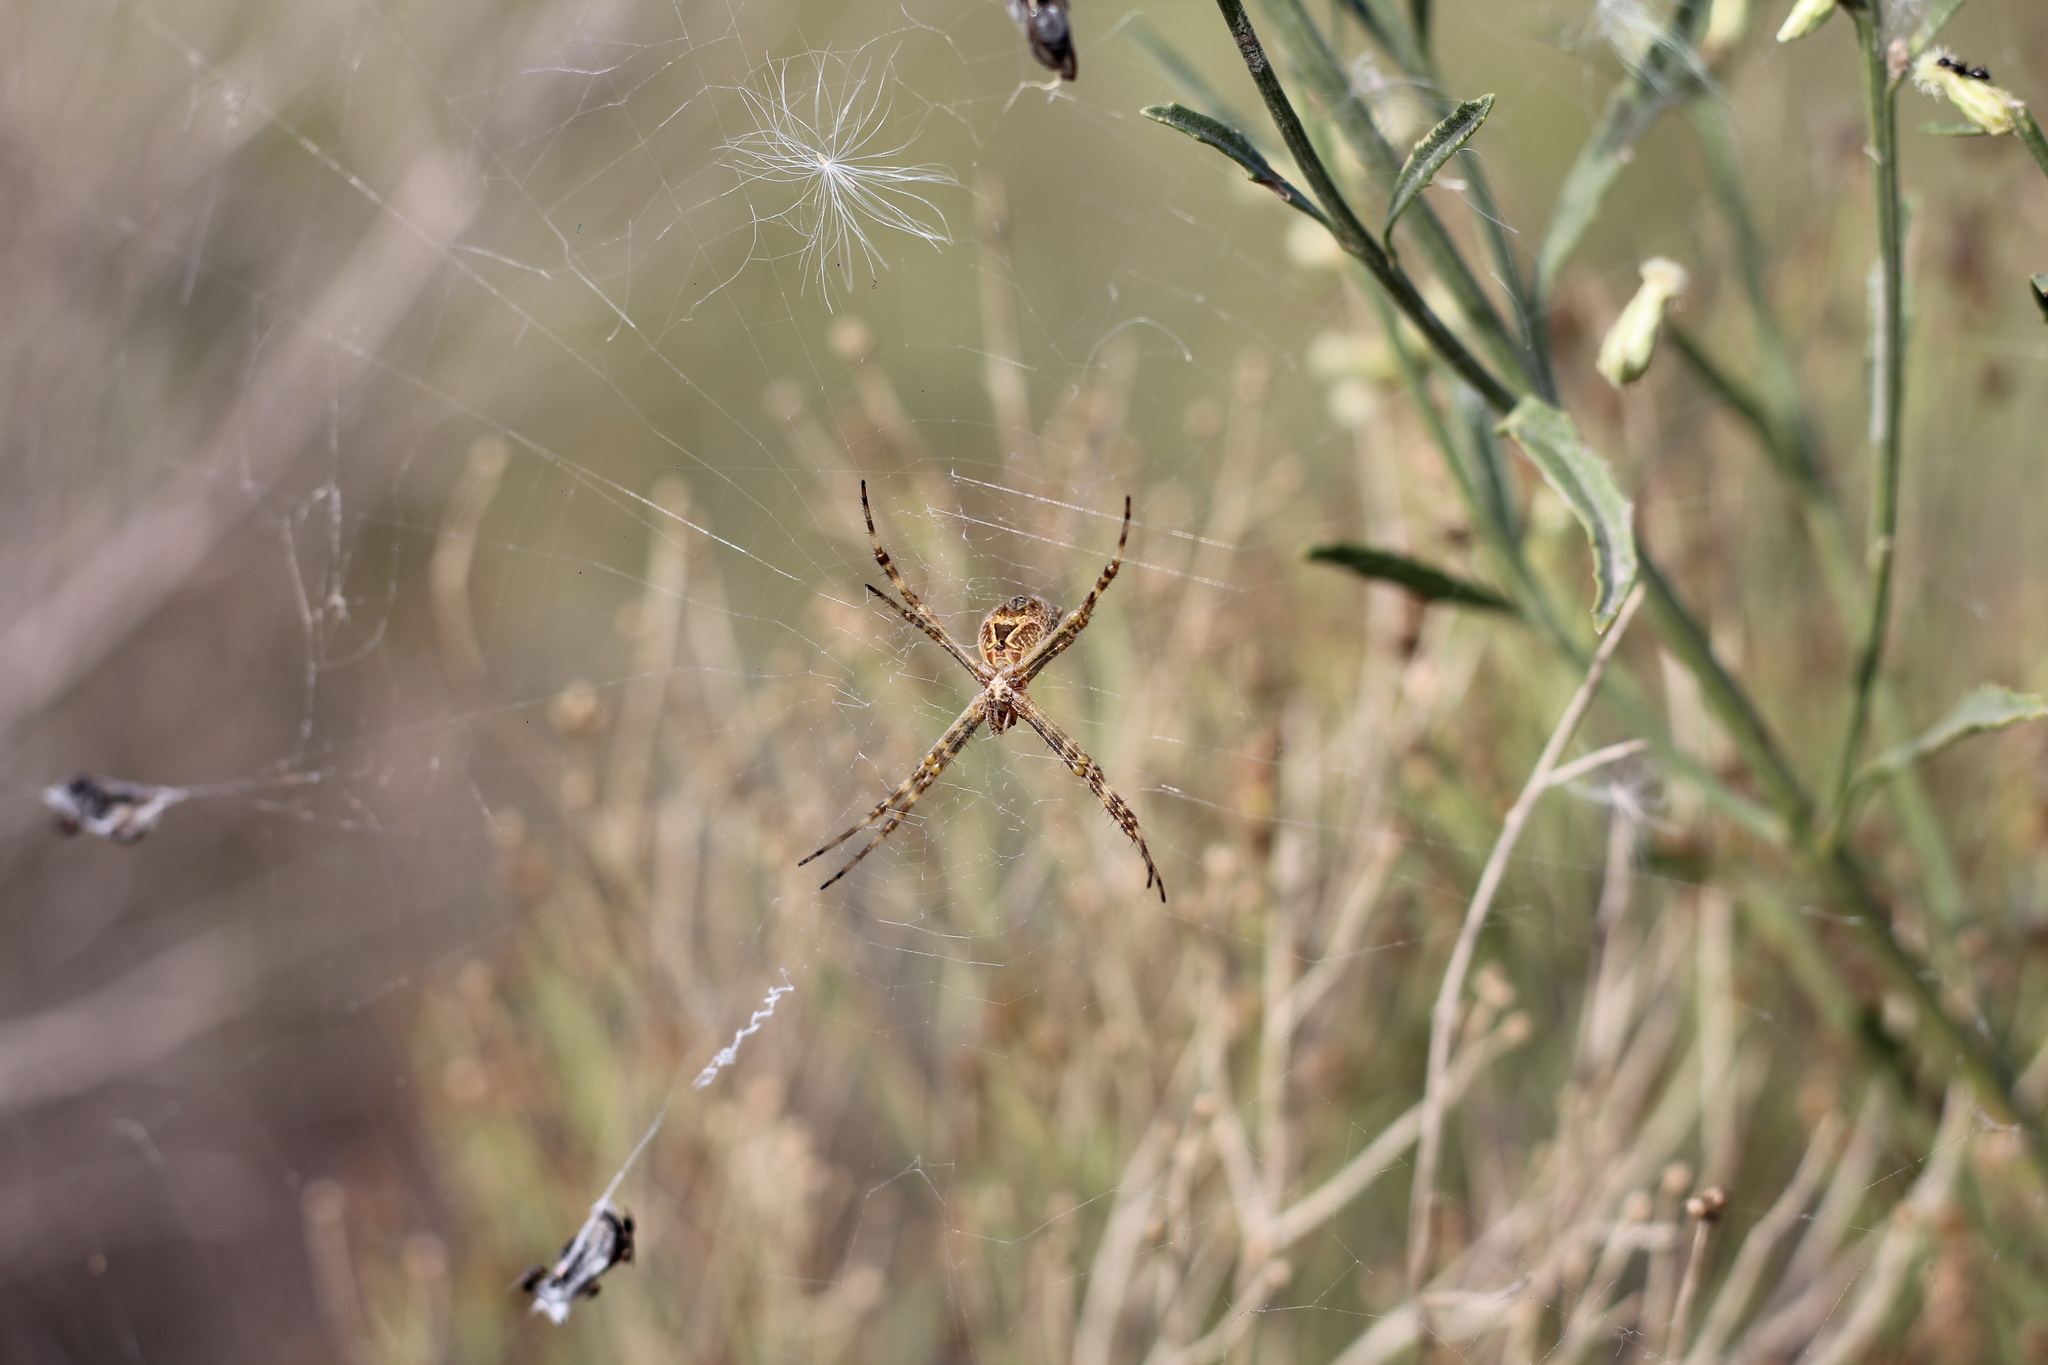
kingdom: Animalia
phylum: Arthropoda
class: Arachnida
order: Araneae
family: Araneidae
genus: Argiope
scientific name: Argiope argentata
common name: Orb weavers
